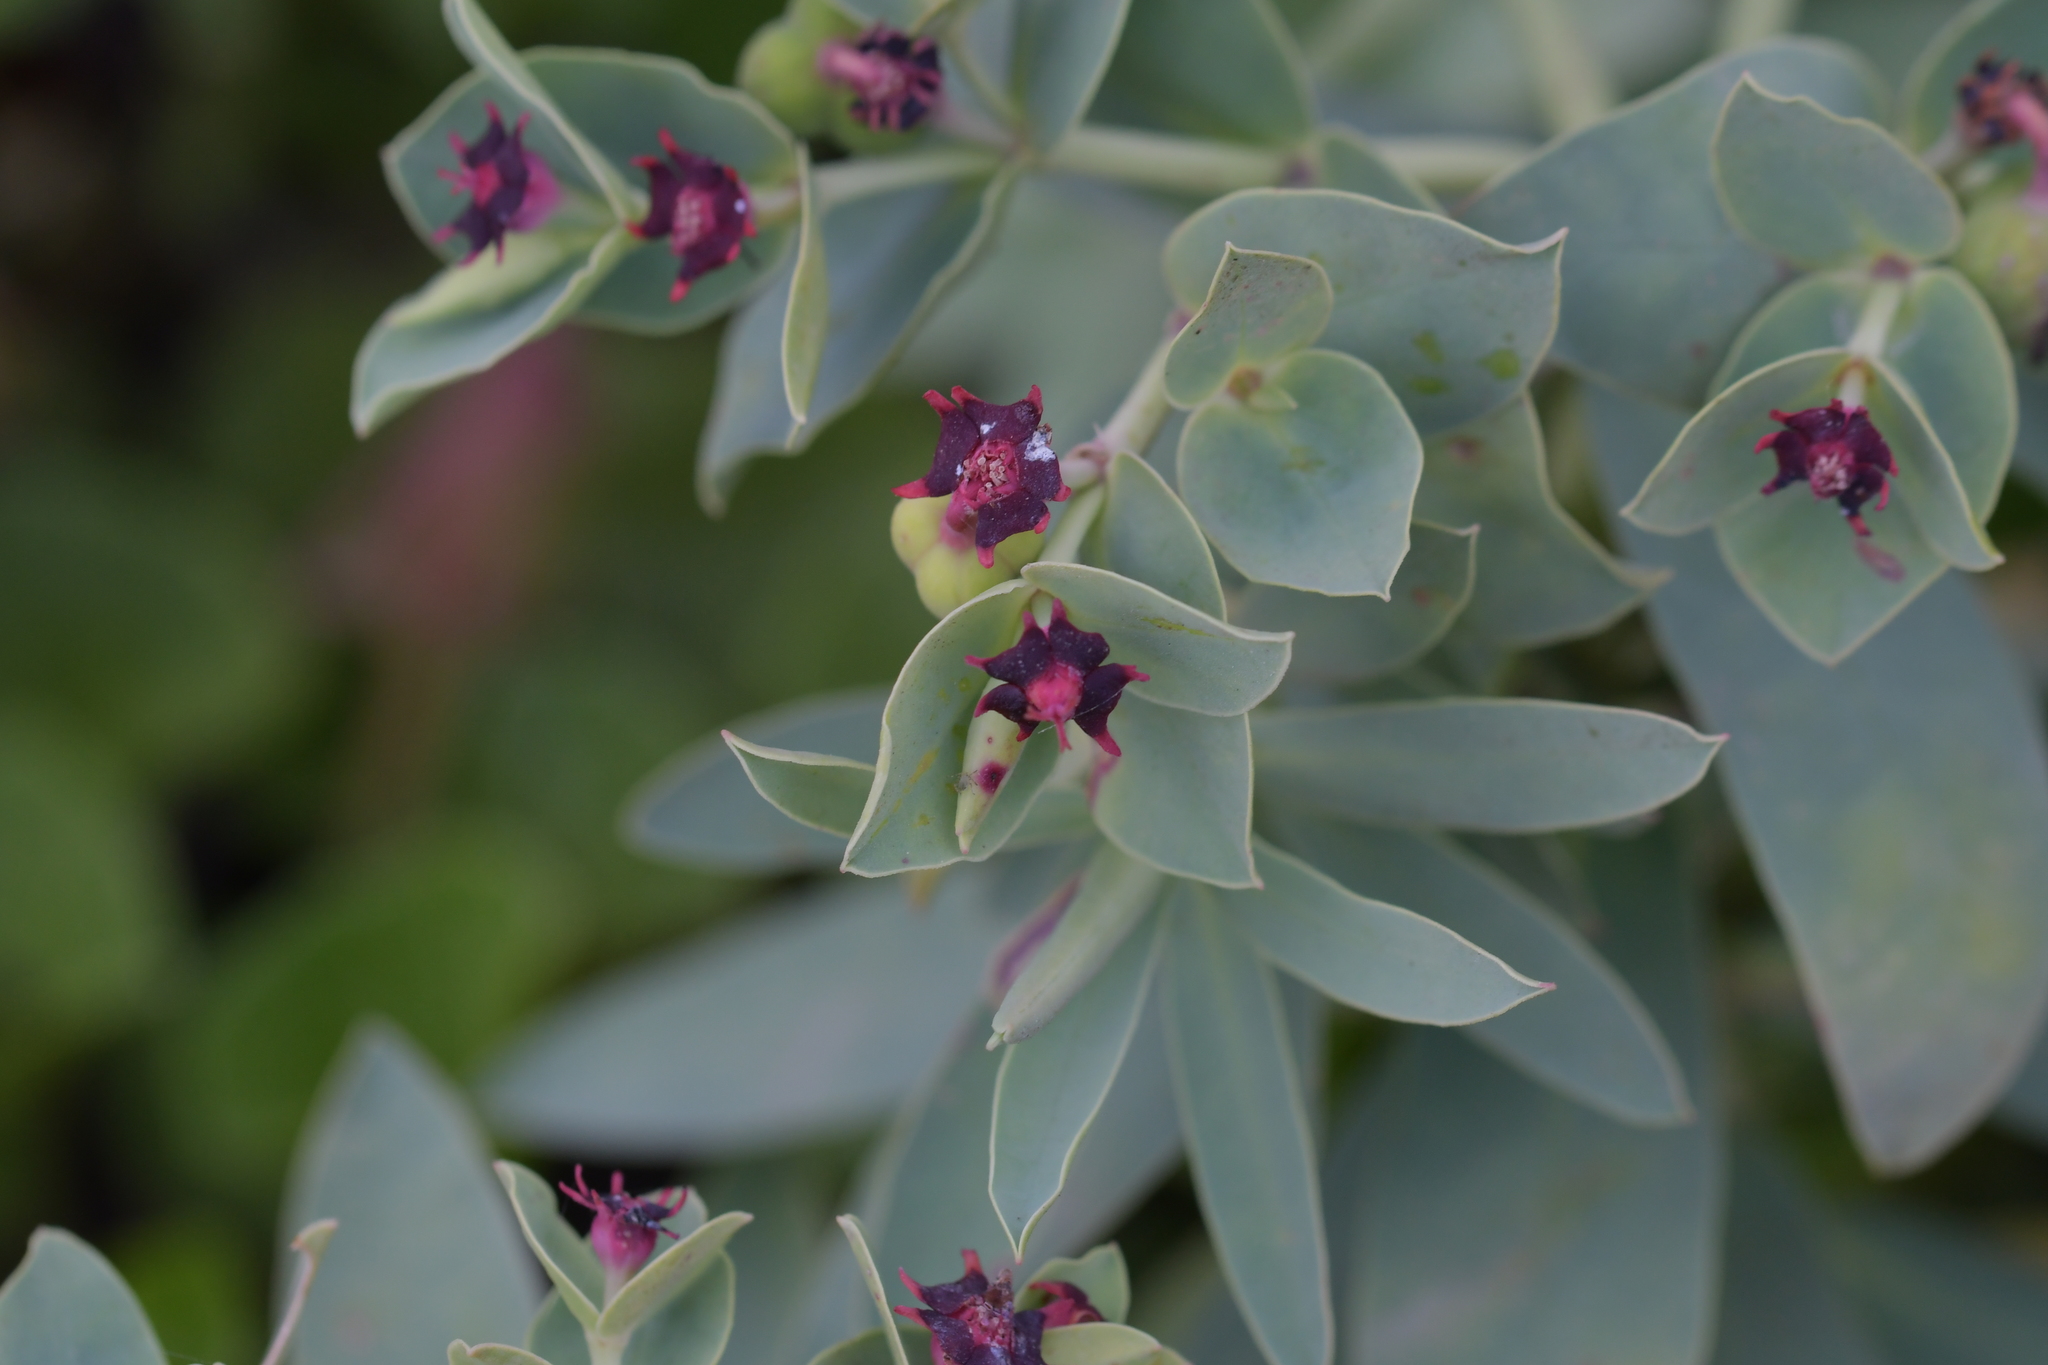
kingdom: Plantae
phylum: Tracheophyta
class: Magnoliopsida
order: Malpighiales
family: Euphorbiaceae
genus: Euphorbia
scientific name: Euphorbia glauca
